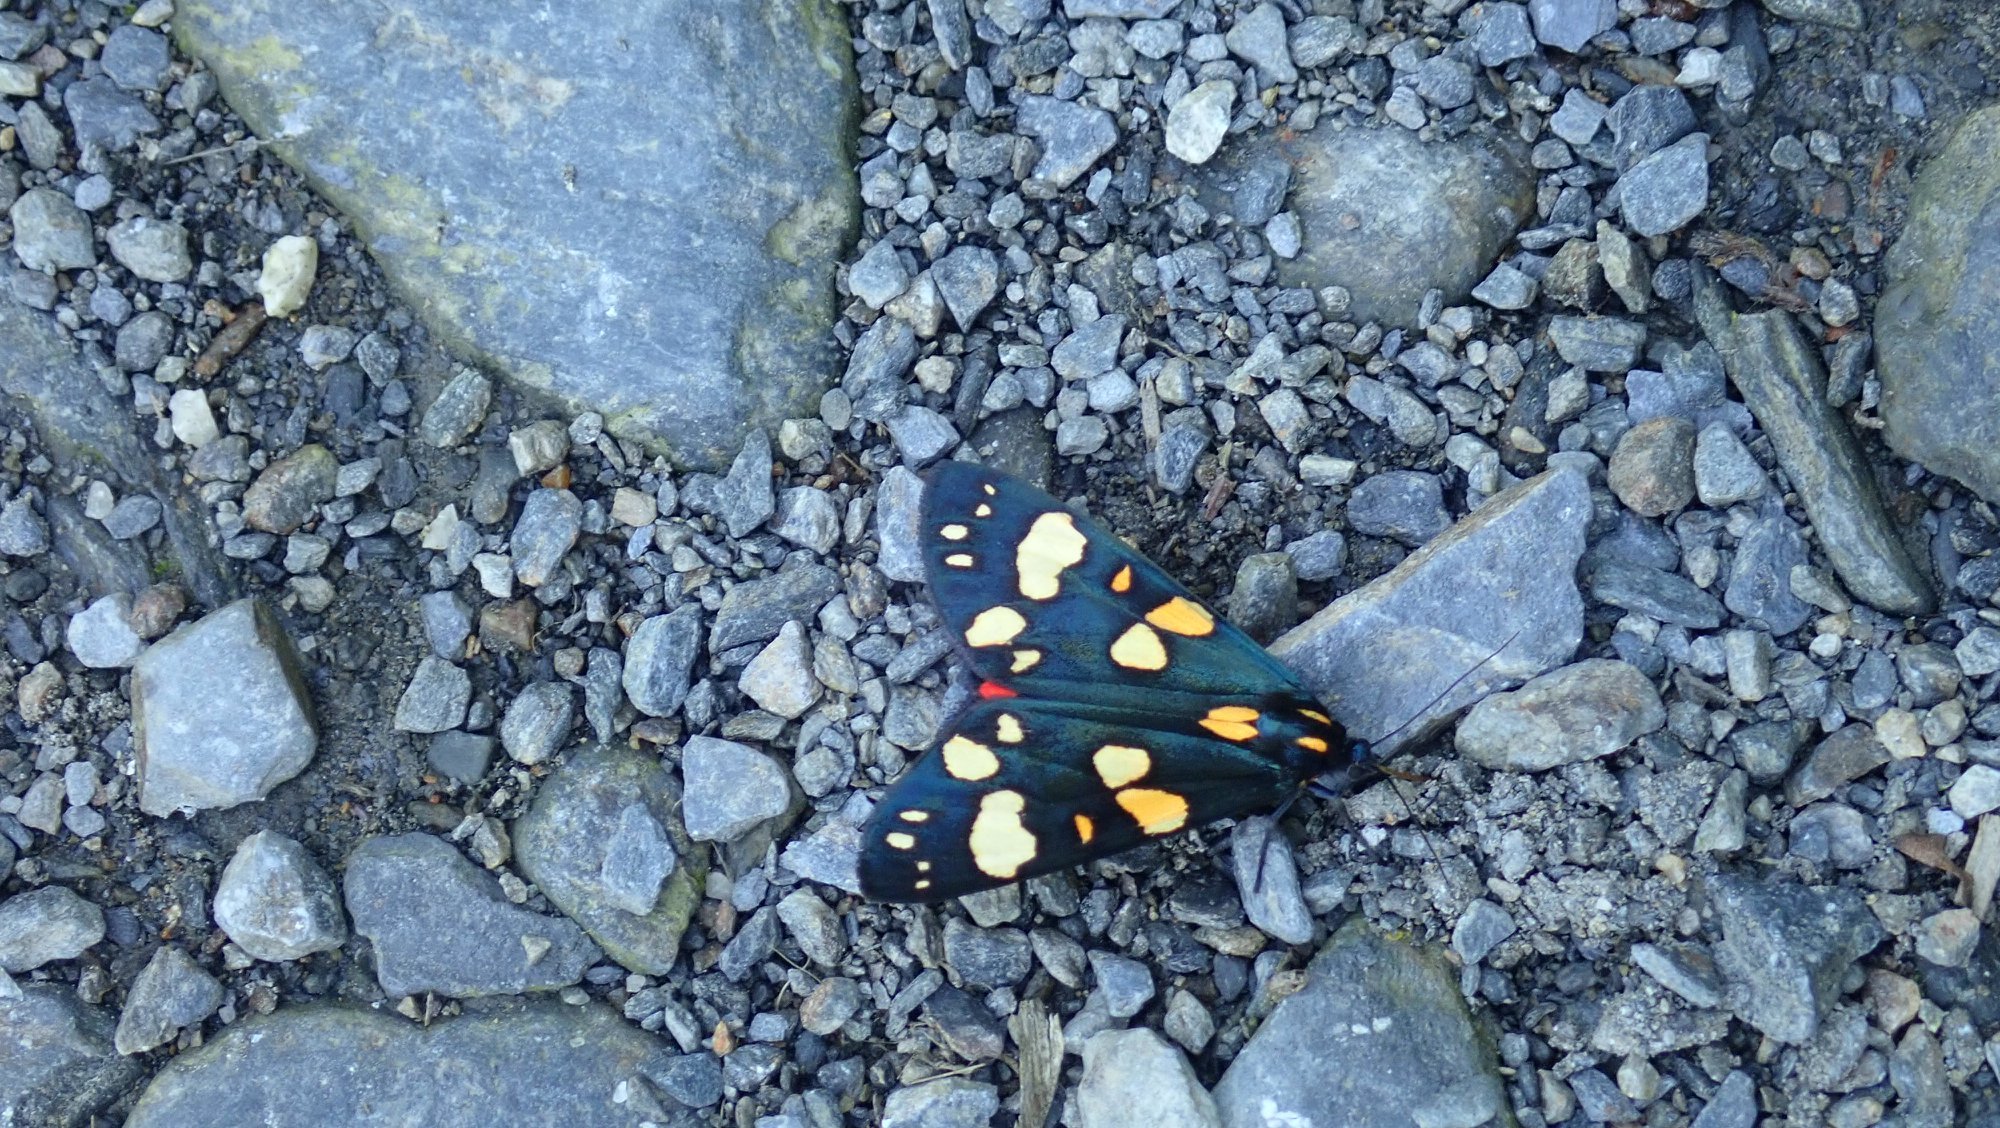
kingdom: Animalia
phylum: Arthropoda
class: Insecta
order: Lepidoptera
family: Erebidae
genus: Callimorpha
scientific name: Callimorpha dominula
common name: Scarlet tiger
